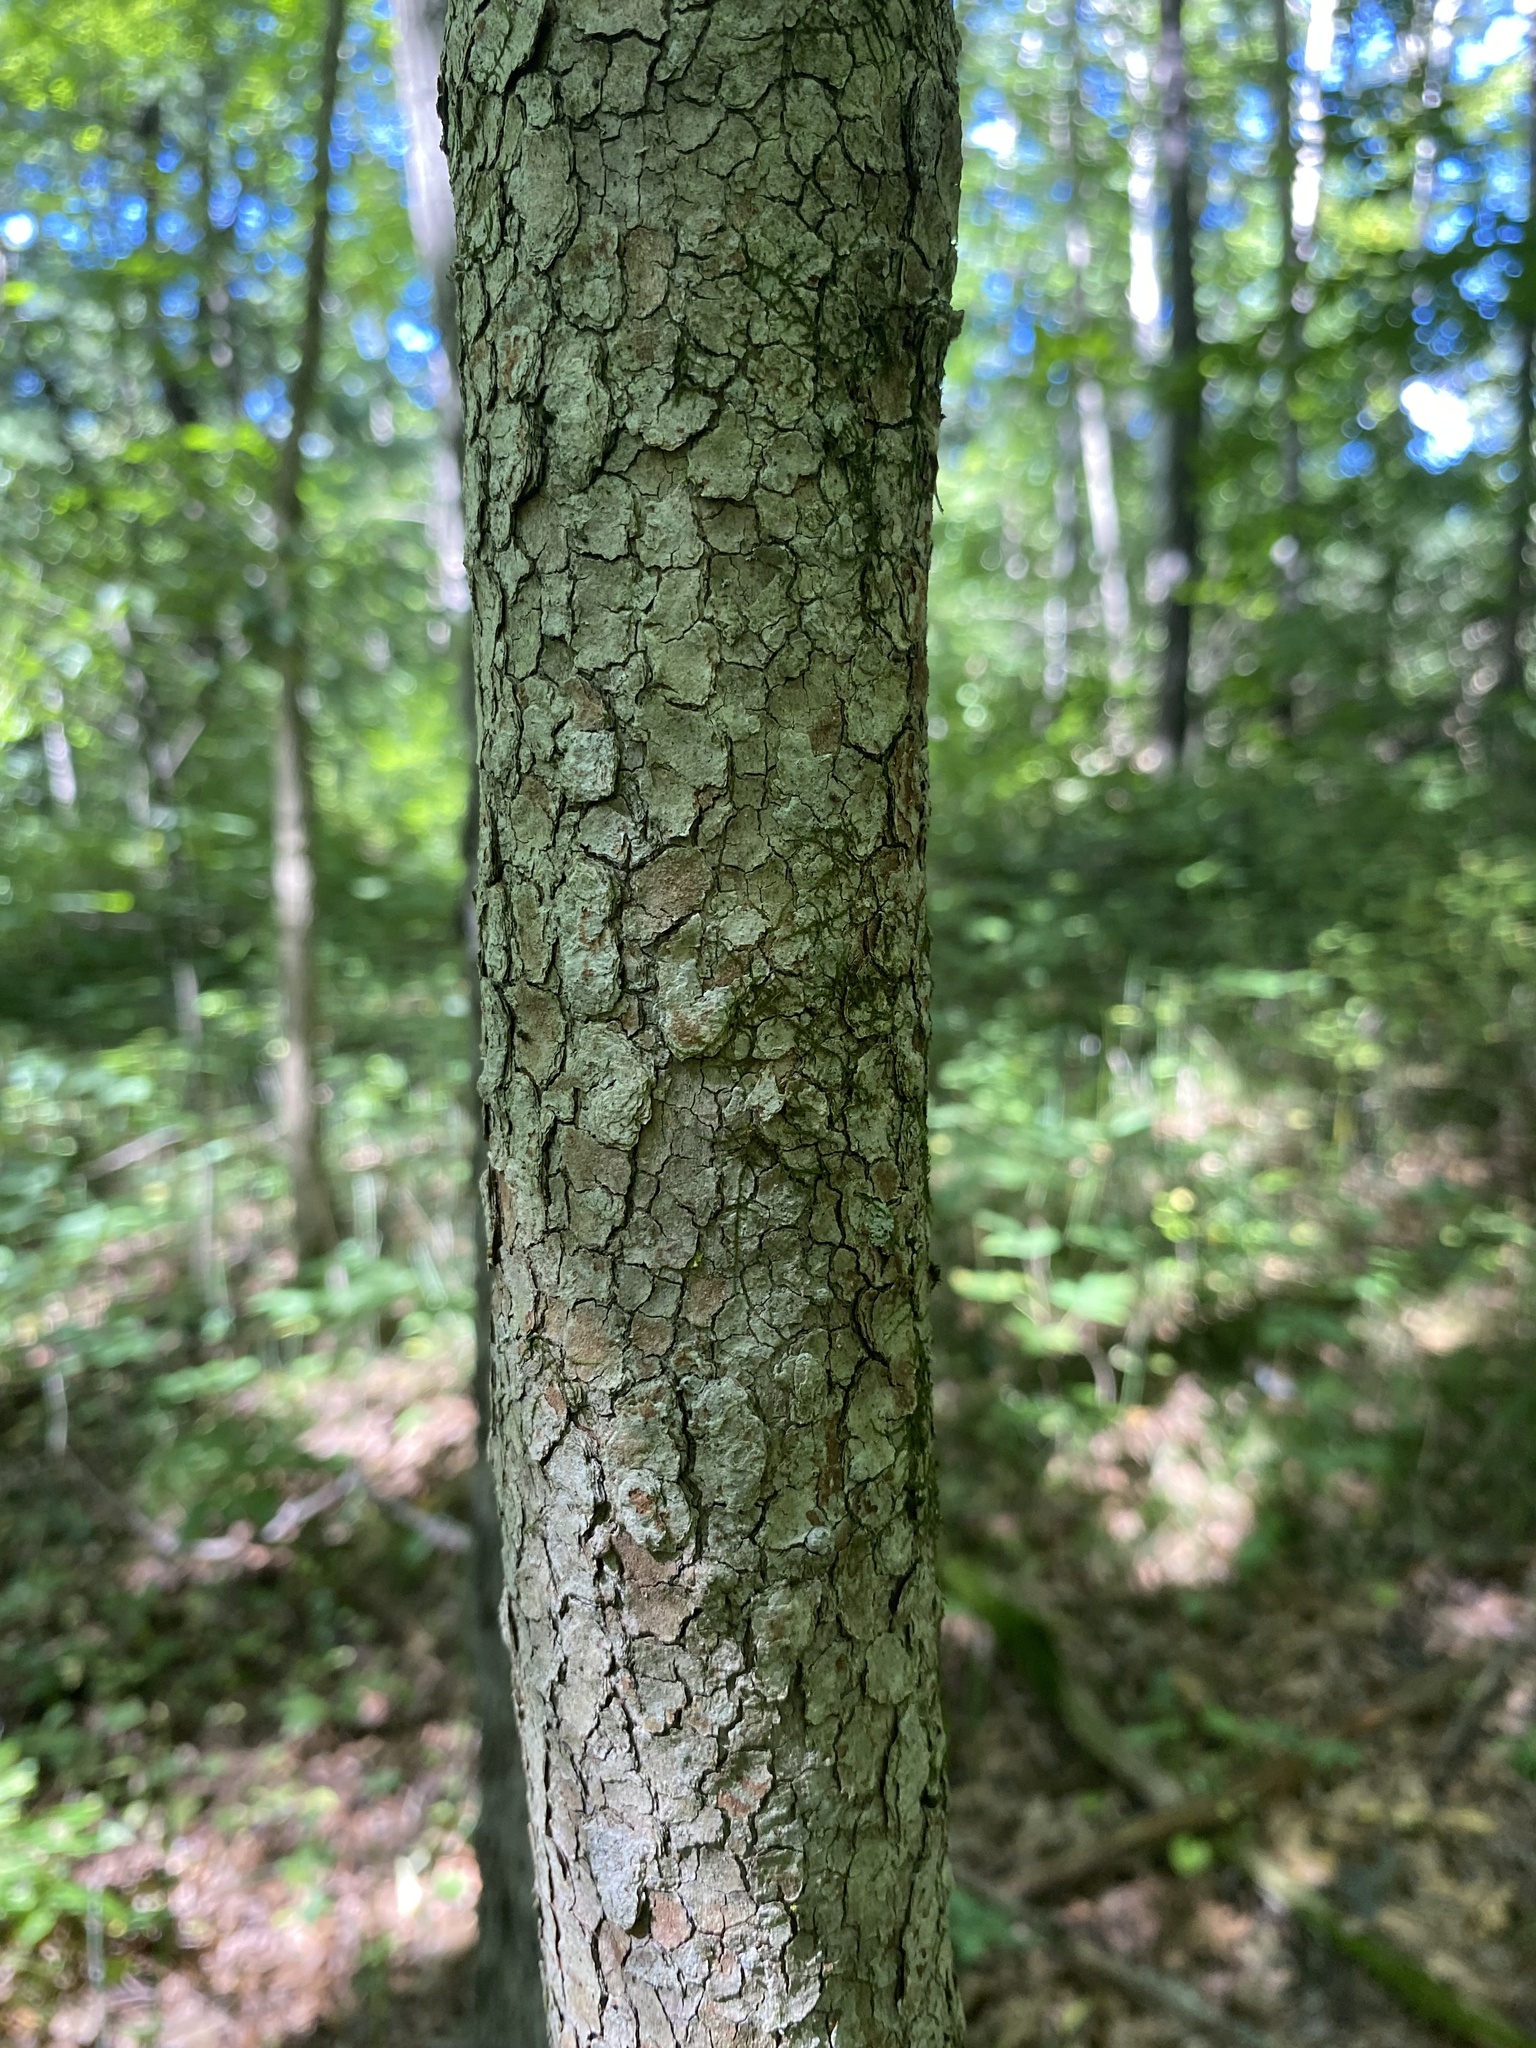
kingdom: Plantae
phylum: Tracheophyta
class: Magnoliopsida
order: Cornales
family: Cornaceae
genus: Cornus
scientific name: Cornus florida
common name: Flowering dogwood
